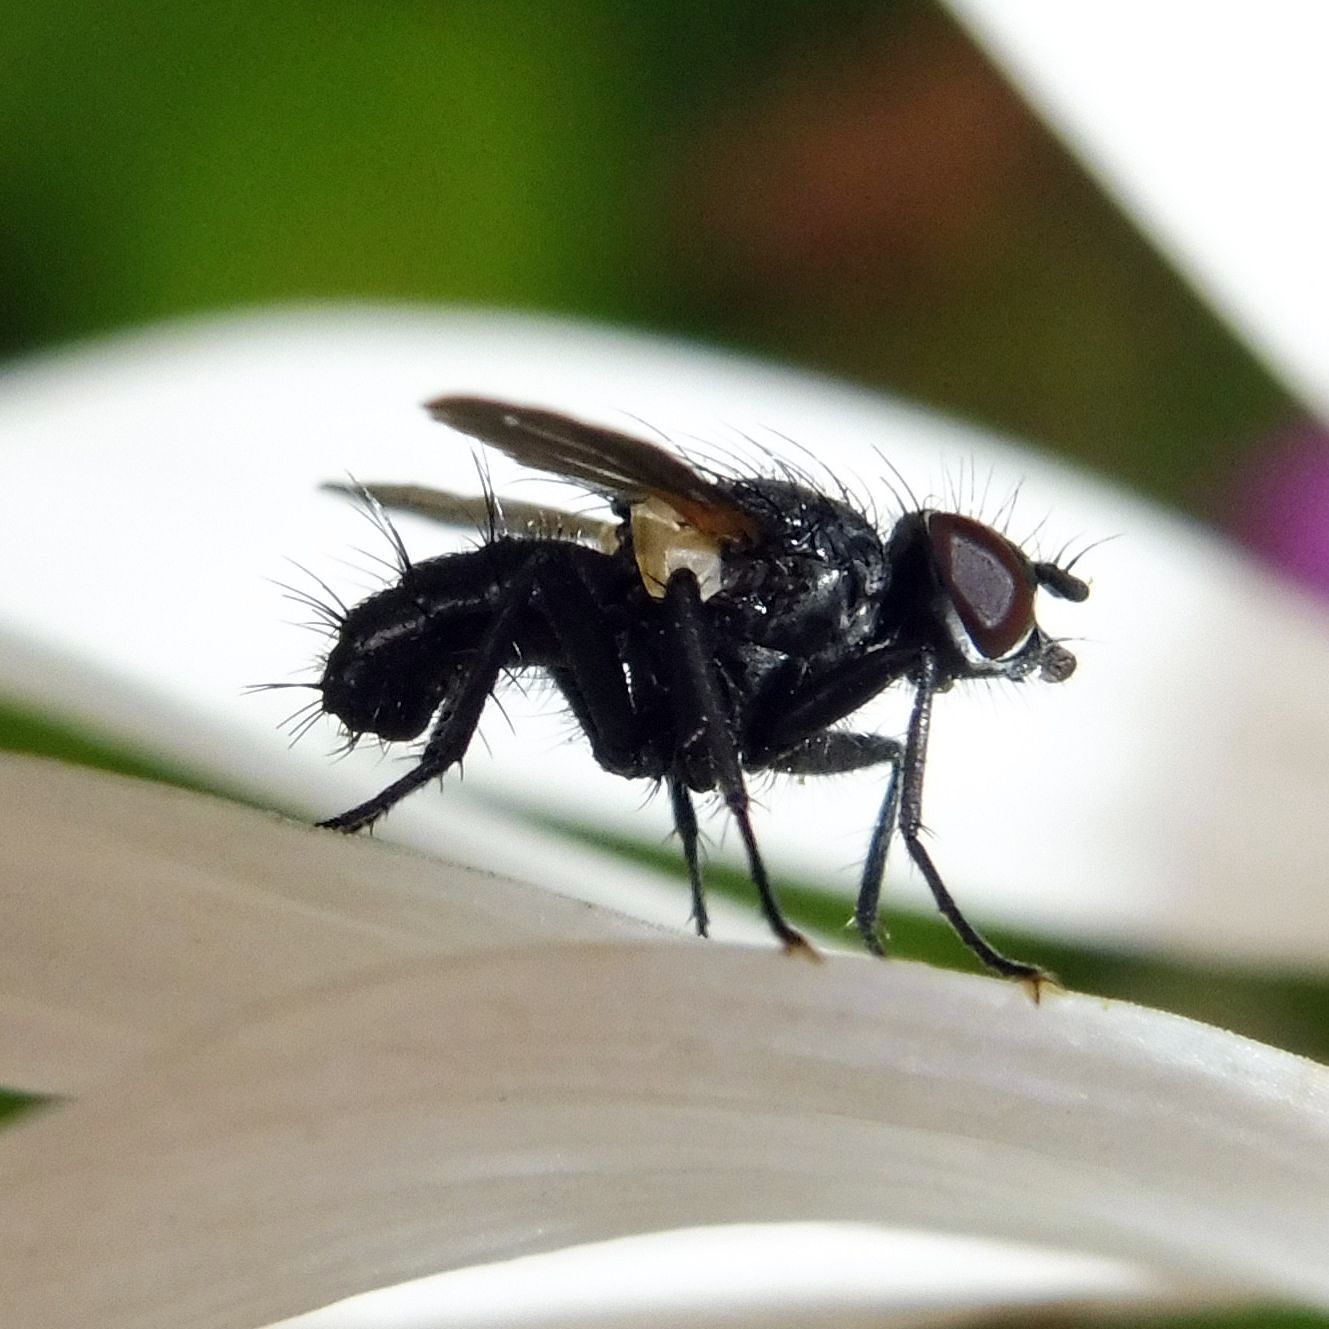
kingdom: Animalia
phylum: Arthropoda
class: Insecta
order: Diptera
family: Tachinidae
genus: Phania
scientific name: Phania funesta
